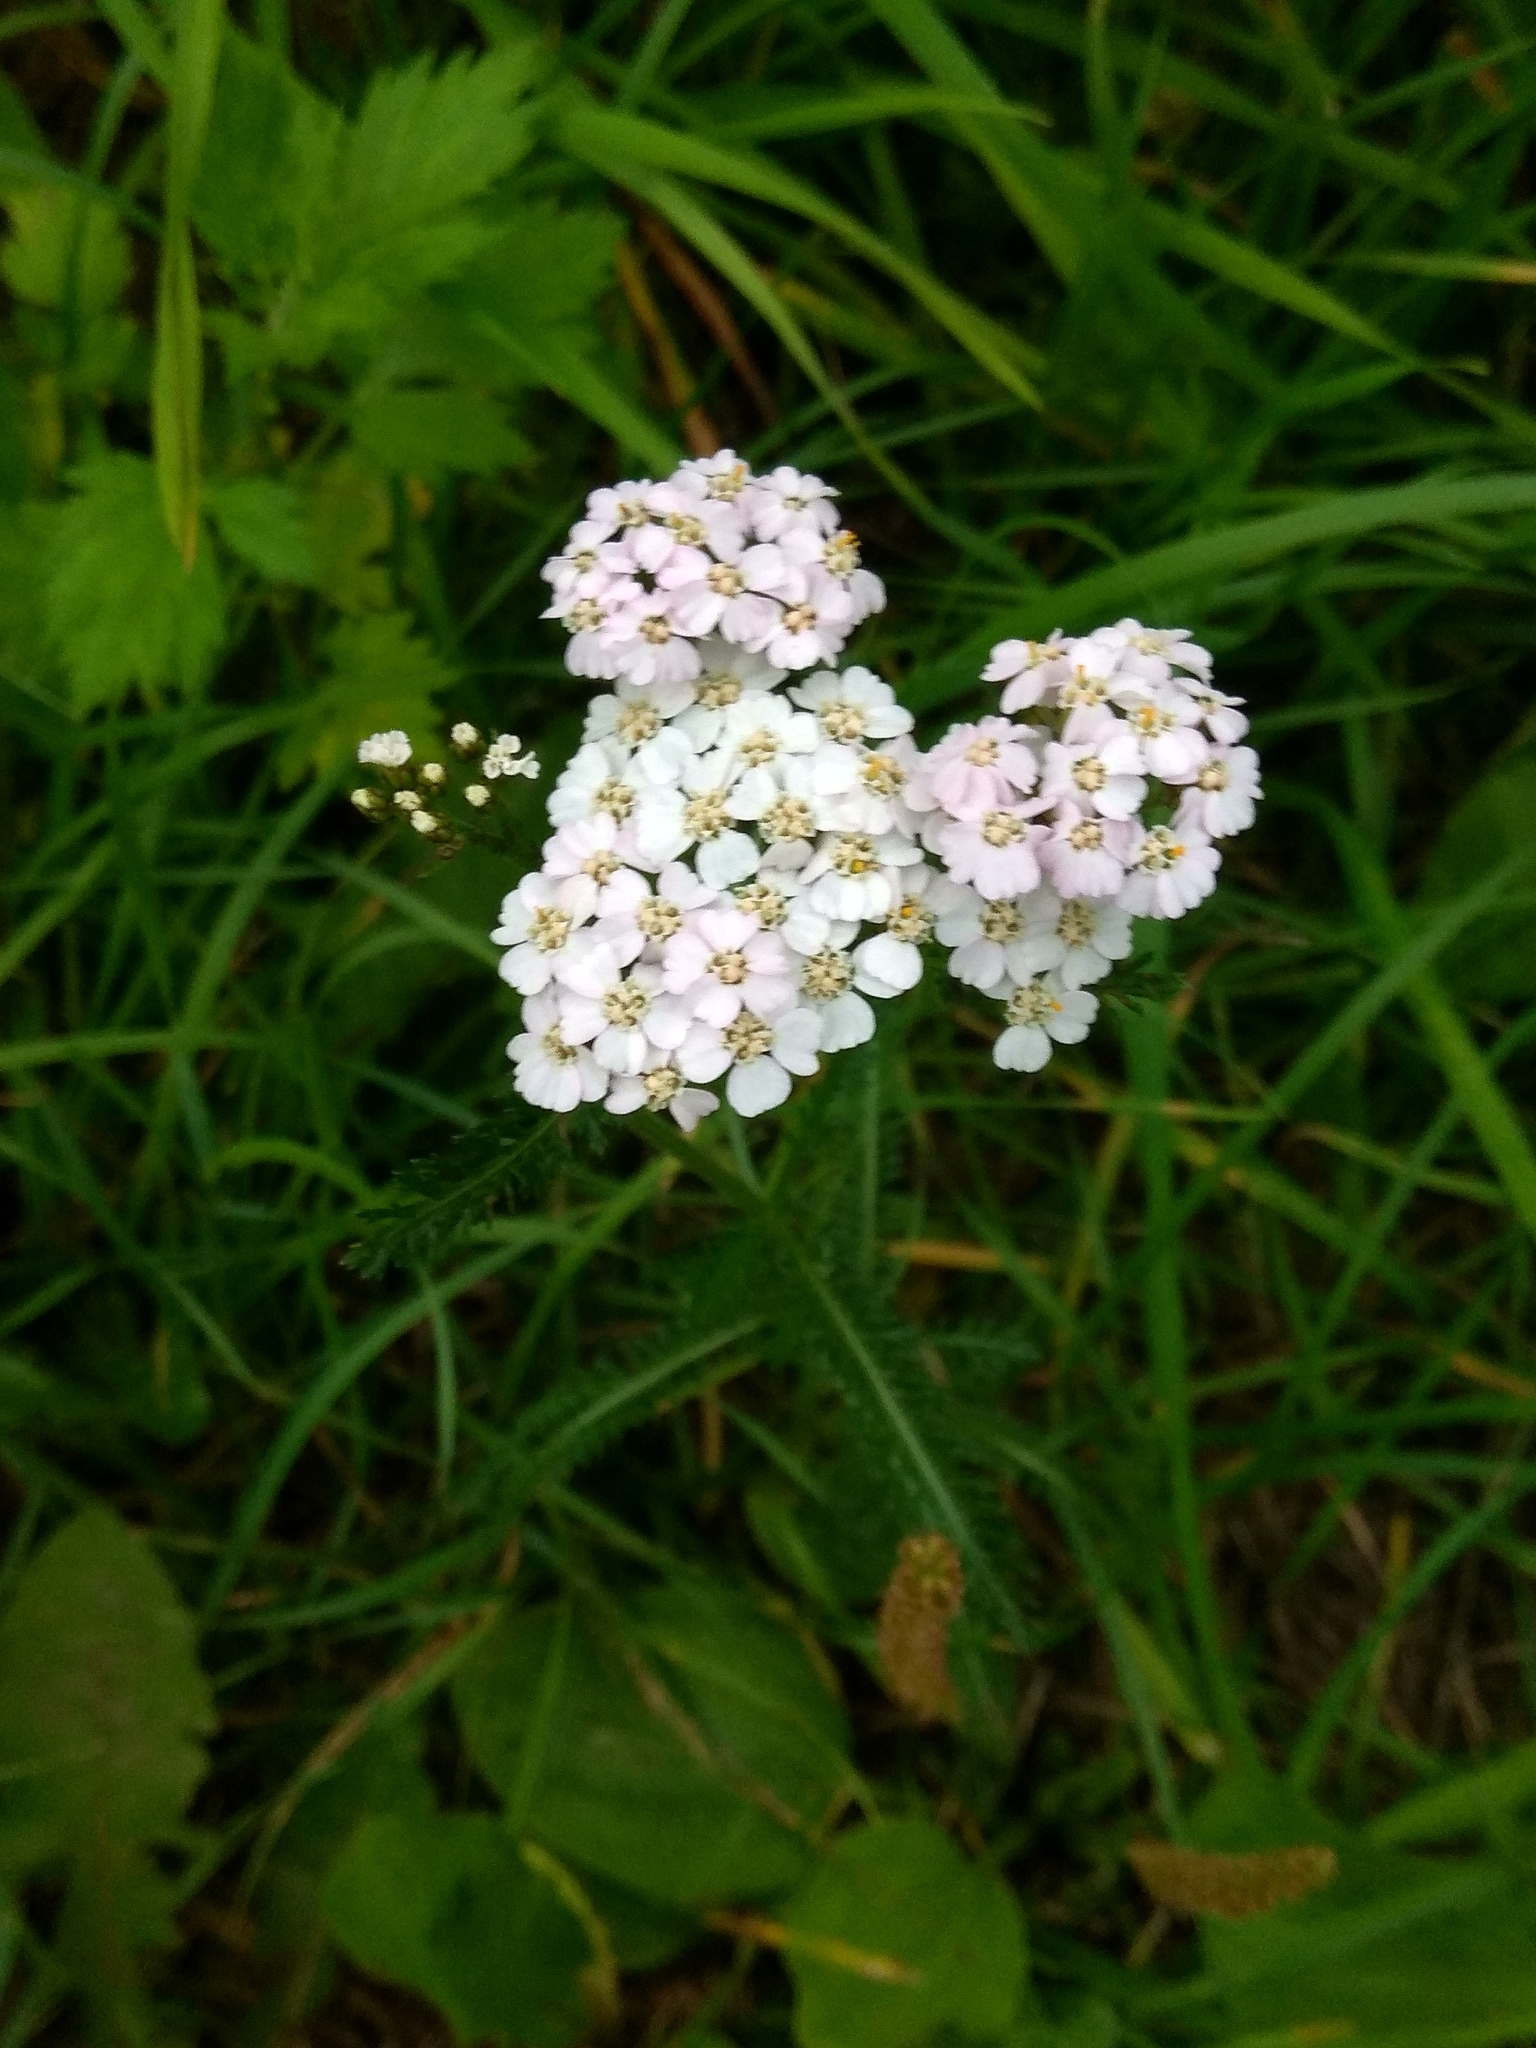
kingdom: Plantae
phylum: Tracheophyta
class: Magnoliopsida
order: Asterales
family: Asteraceae
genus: Achillea
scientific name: Achillea millefolium
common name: Yarrow
